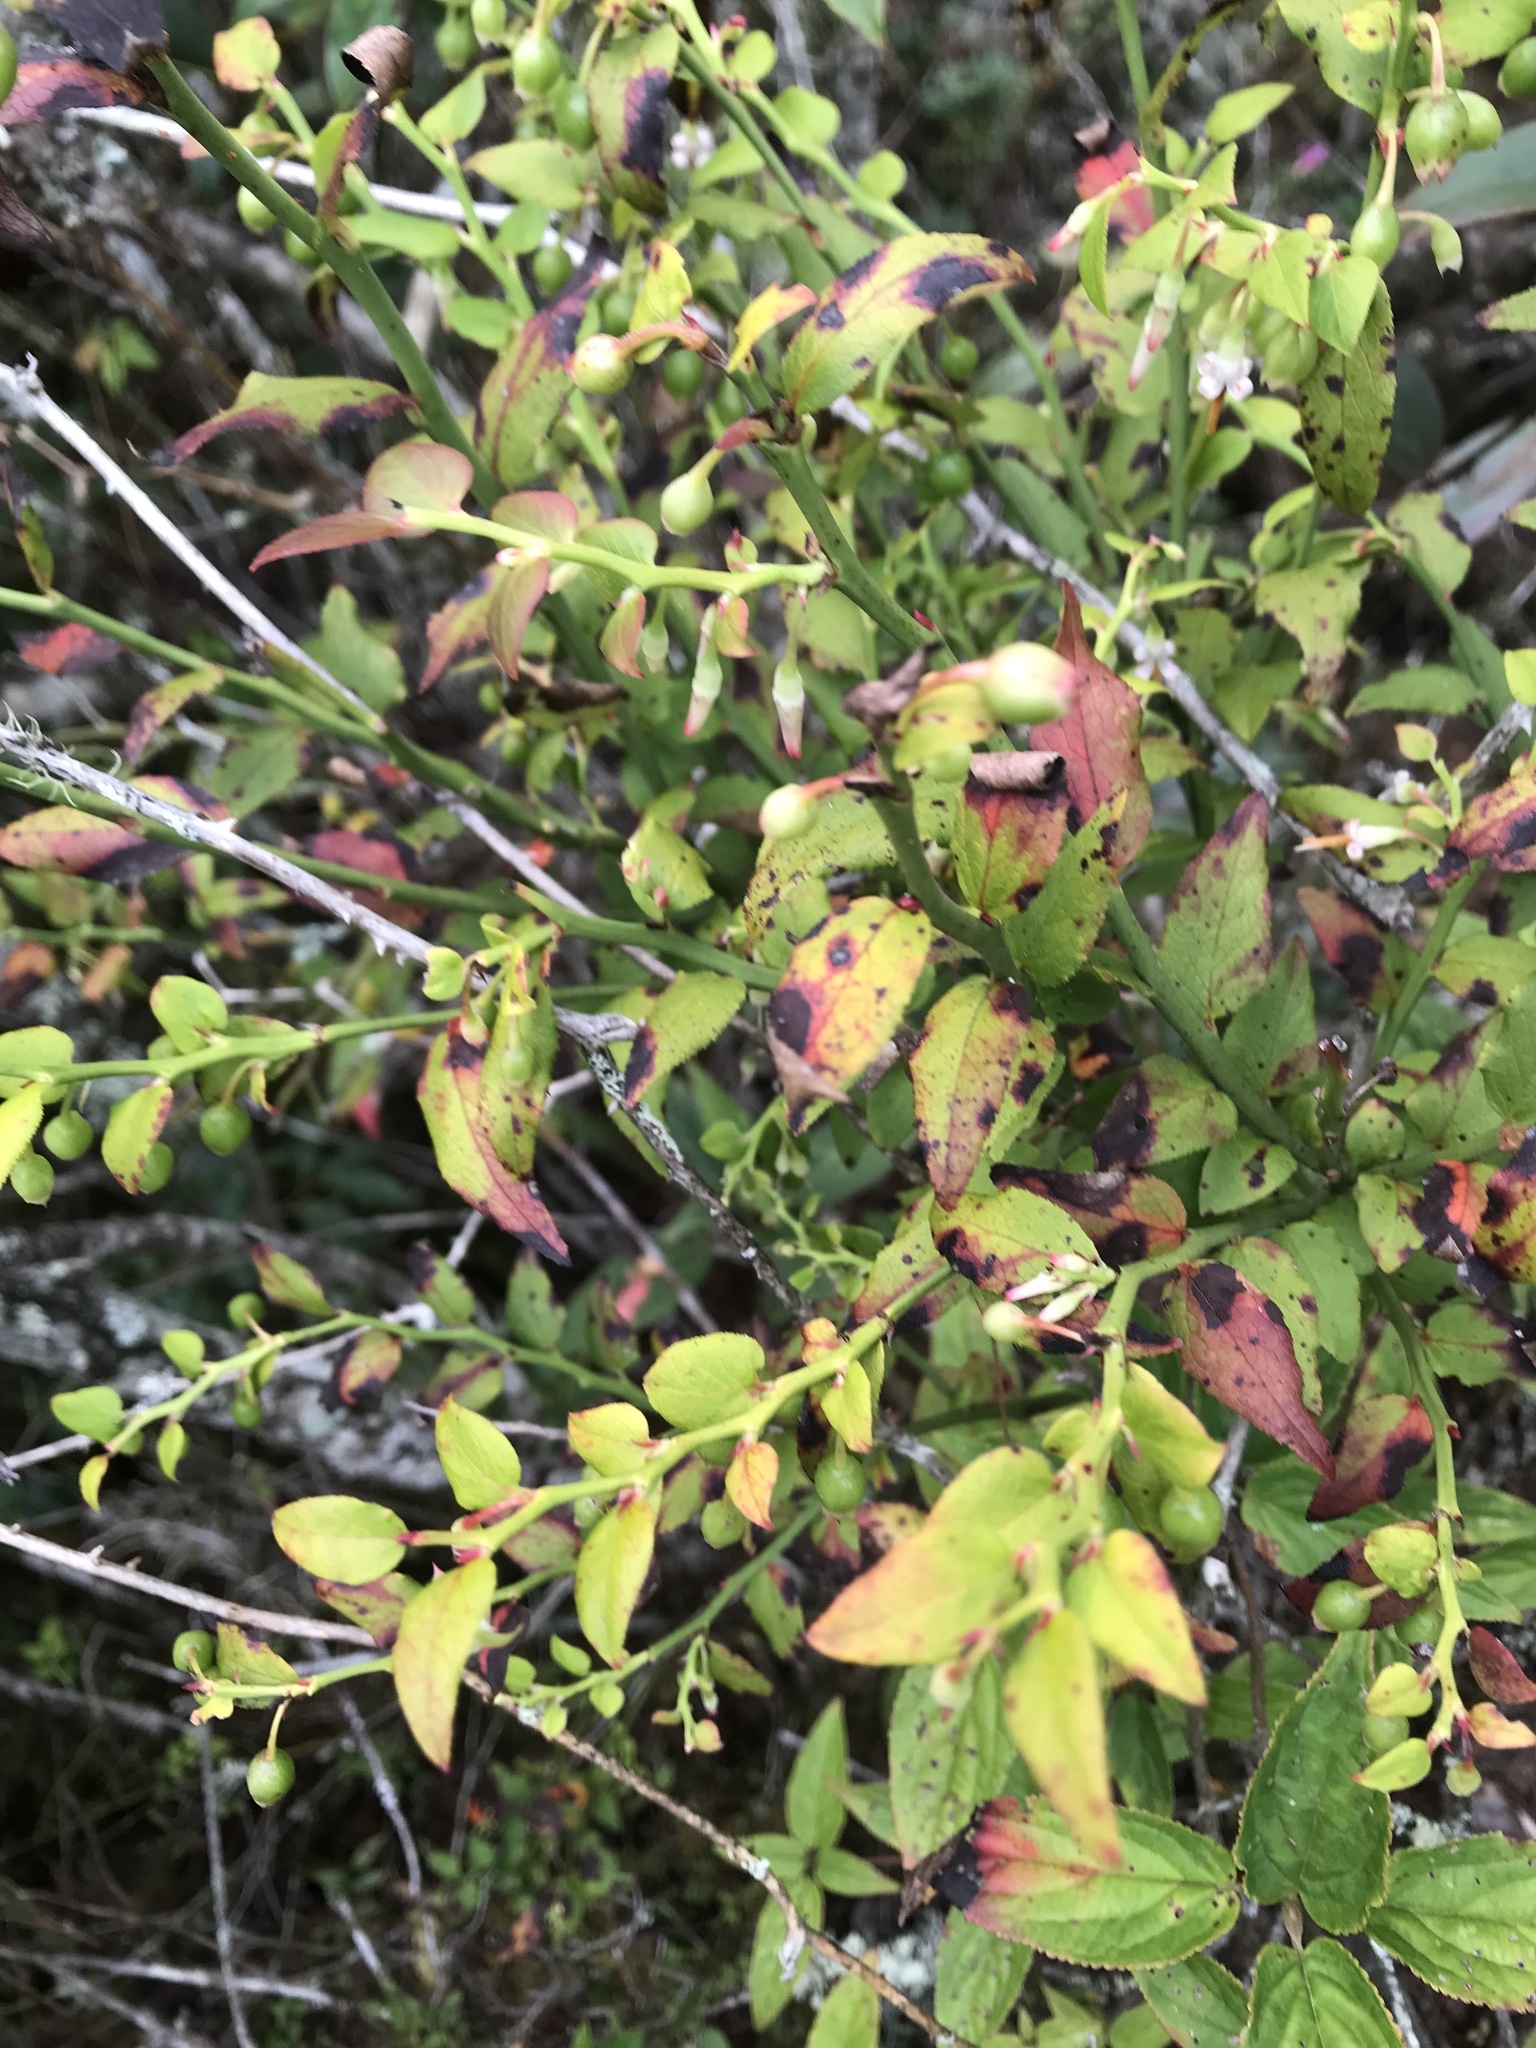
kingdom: Plantae
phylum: Tracheophyta
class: Magnoliopsida
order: Ericales
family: Ericaceae
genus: Vaccinium
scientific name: Vaccinium japonicum
